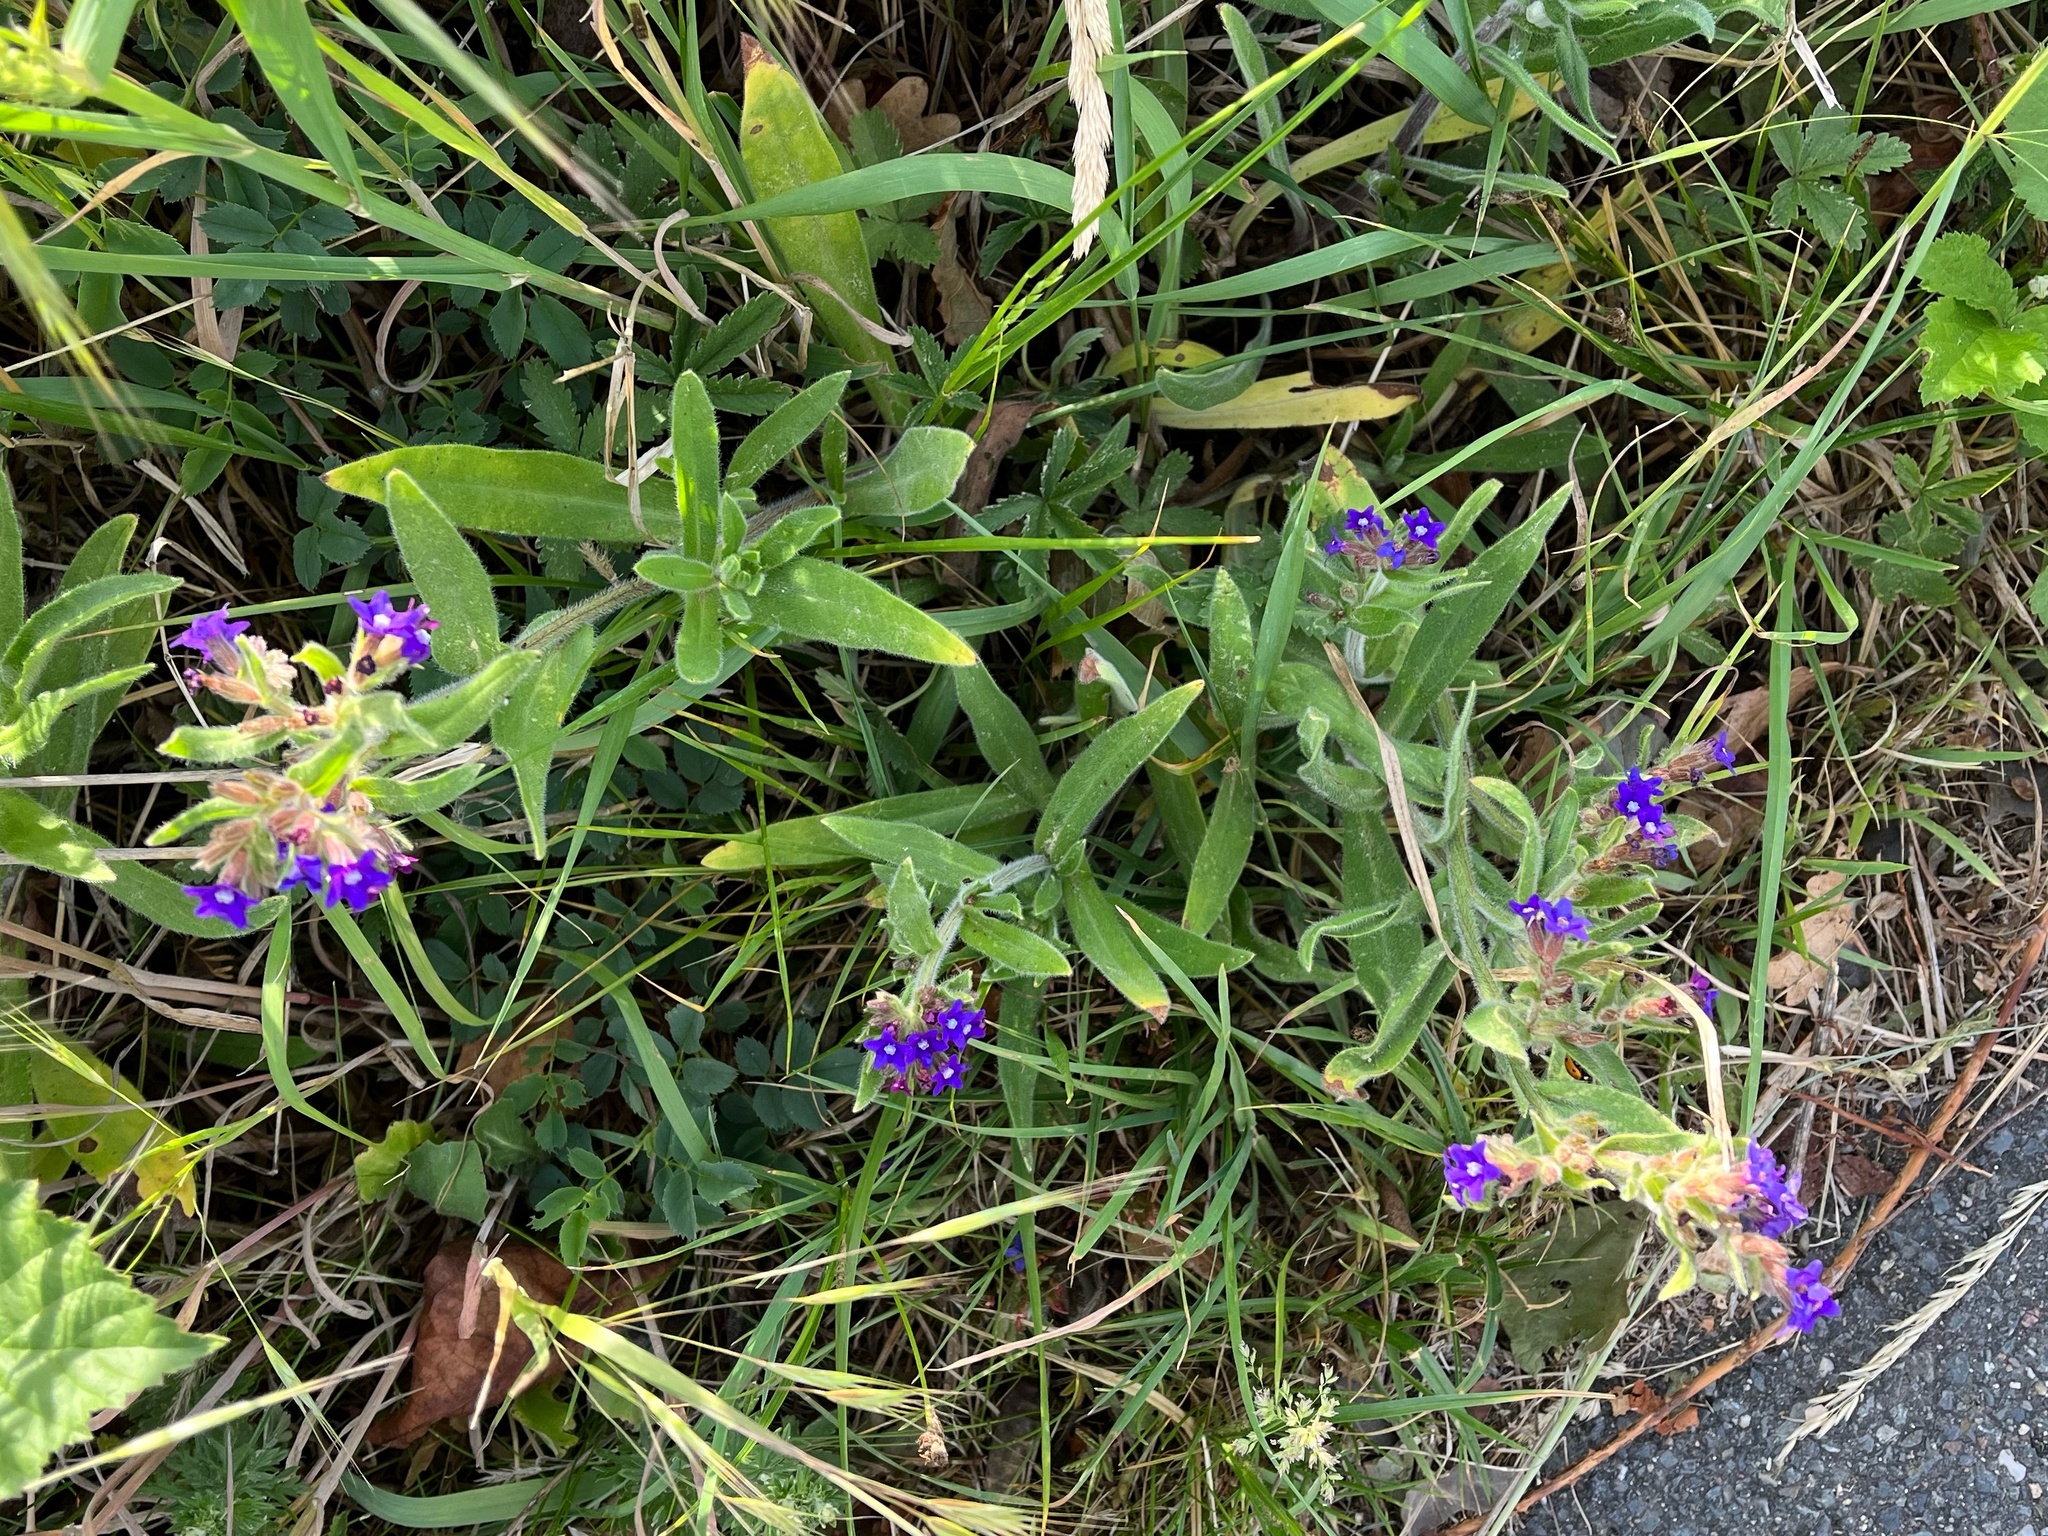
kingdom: Plantae
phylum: Tracheophyta
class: Magnoliopsida
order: Boraginales
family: Boraginaceae
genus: Anchusa
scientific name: Anchusa officinalis
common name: Alkanet
